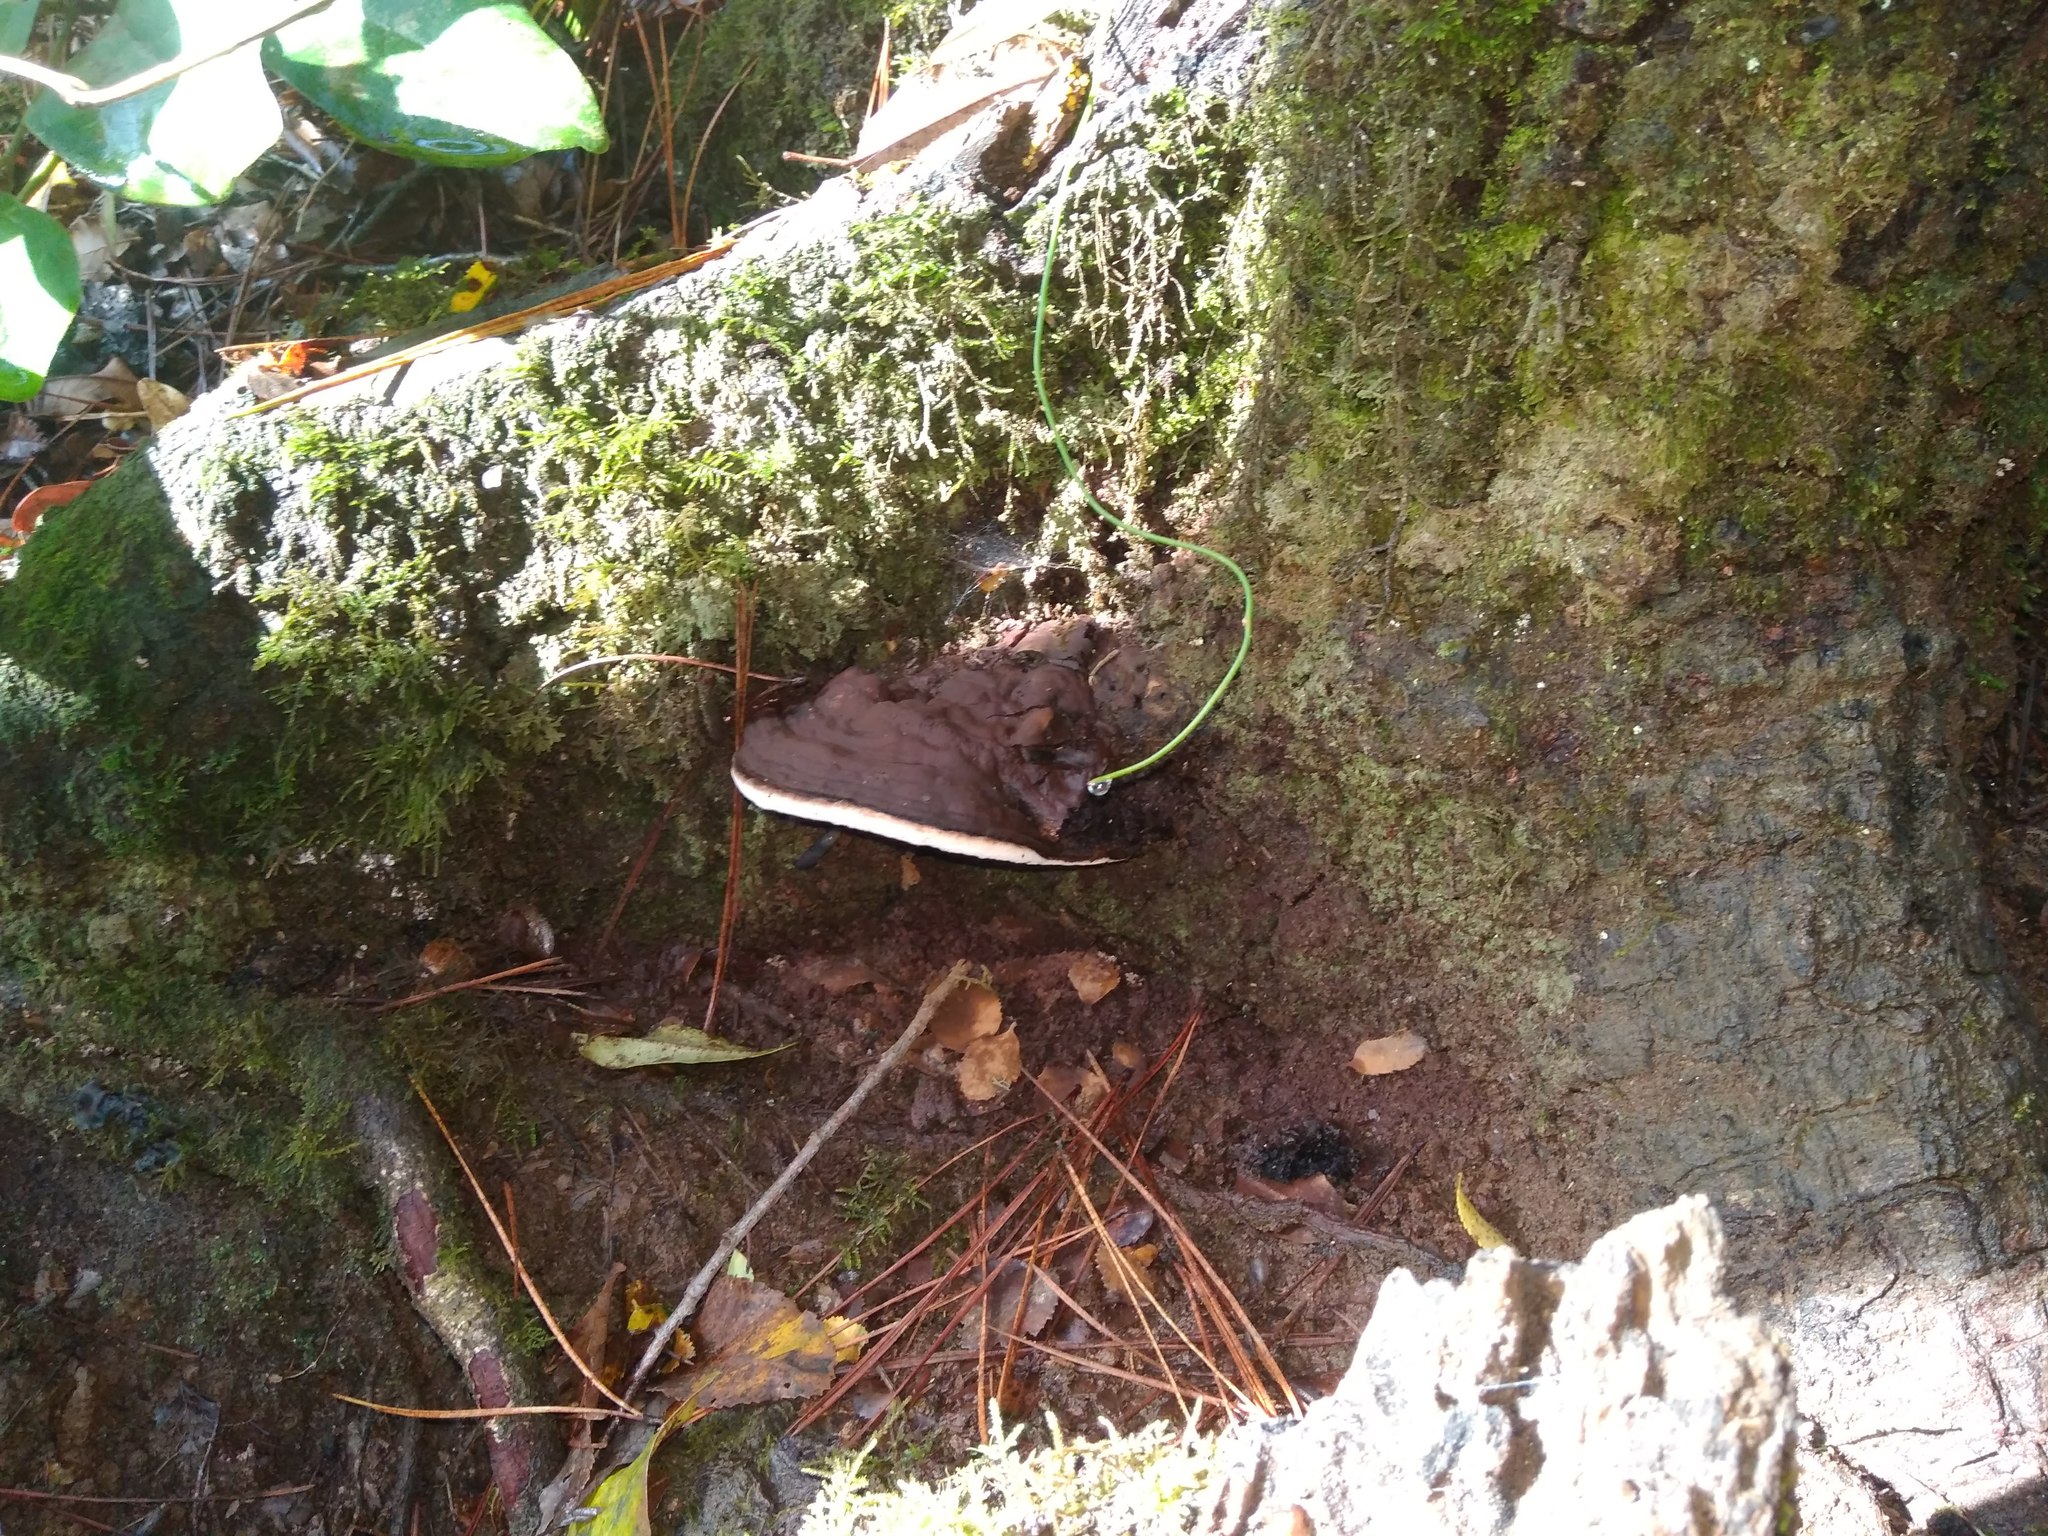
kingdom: Fungi
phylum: Basidiomycota
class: Agaricomycetes
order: Polyporales
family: Polyporaceae
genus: Ganoderma
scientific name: Ganoderma australe
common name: Southern bracket
